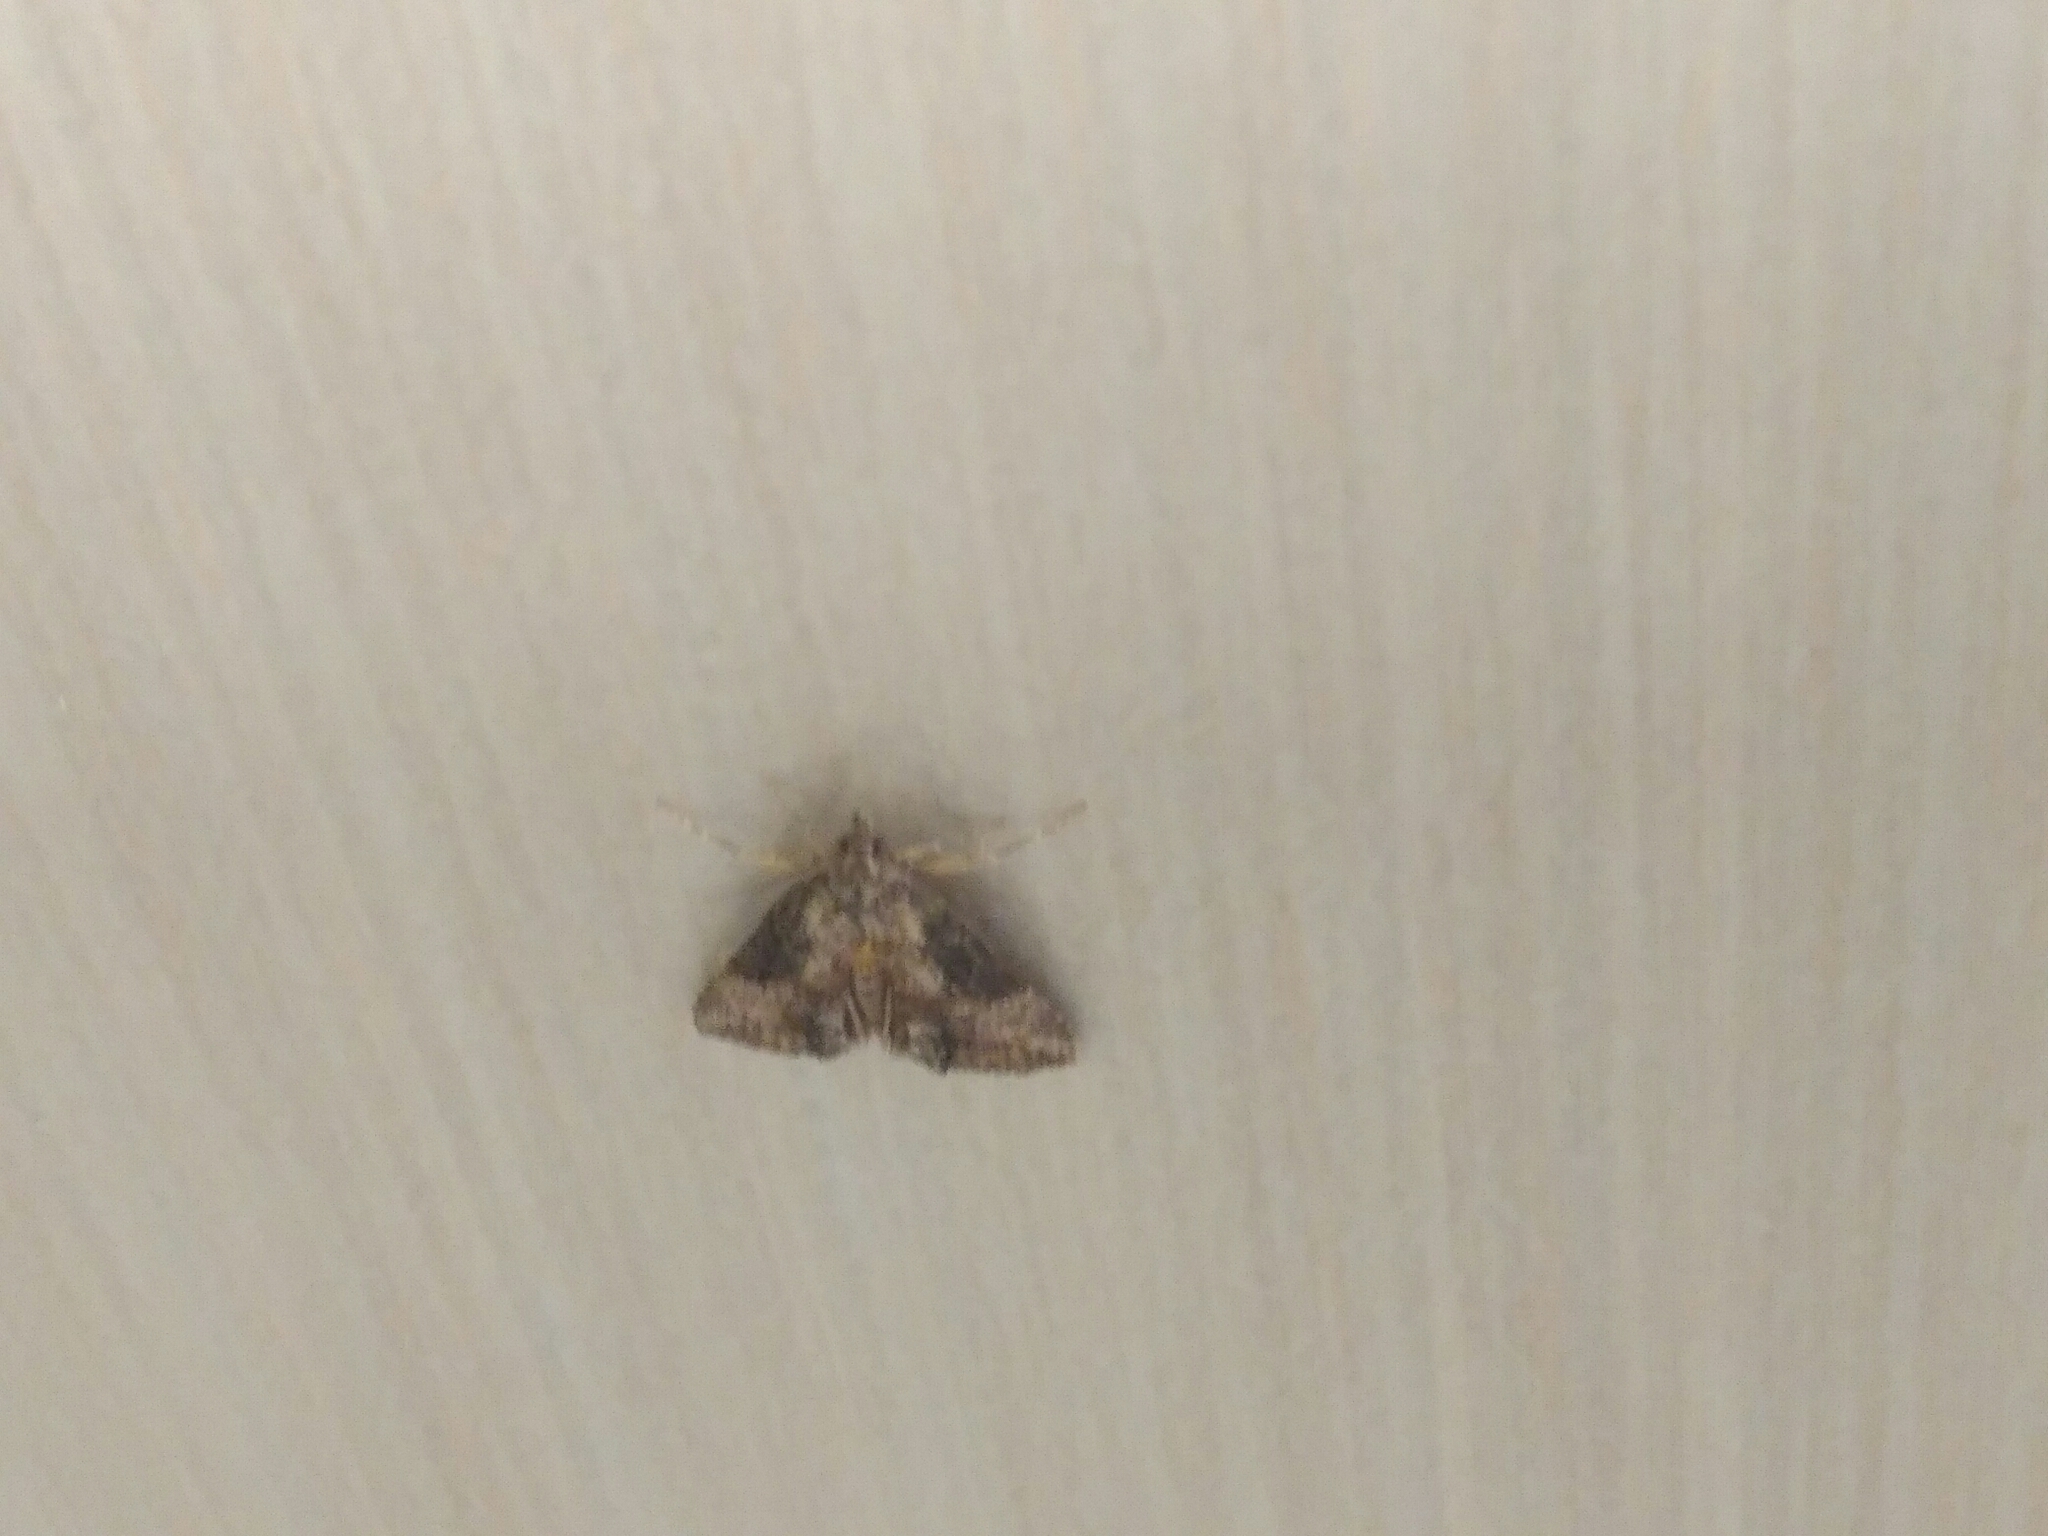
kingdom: Animalia
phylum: Arthropoda
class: Insecta
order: Lepidoptera
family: Erebidae
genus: Hypena
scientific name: Hypena scabra
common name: Green cloverworm
